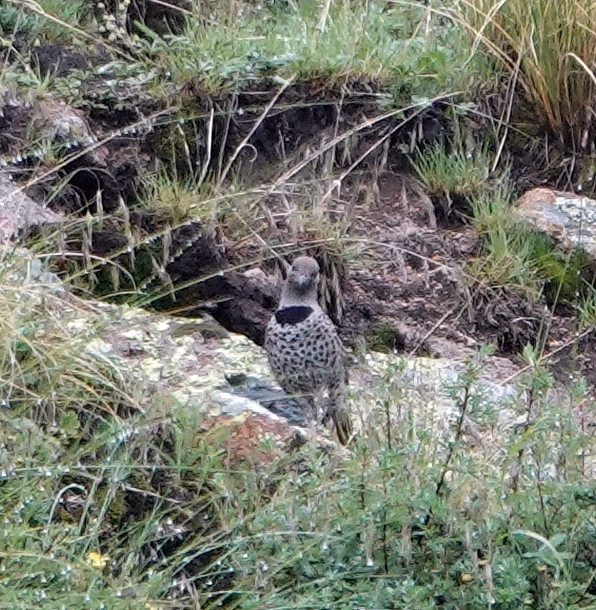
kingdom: Animalia
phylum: Chordata
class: Aves
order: Piciformes
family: Picidae
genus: Colaptes
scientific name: Colaptes auratus
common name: Northern flicker
